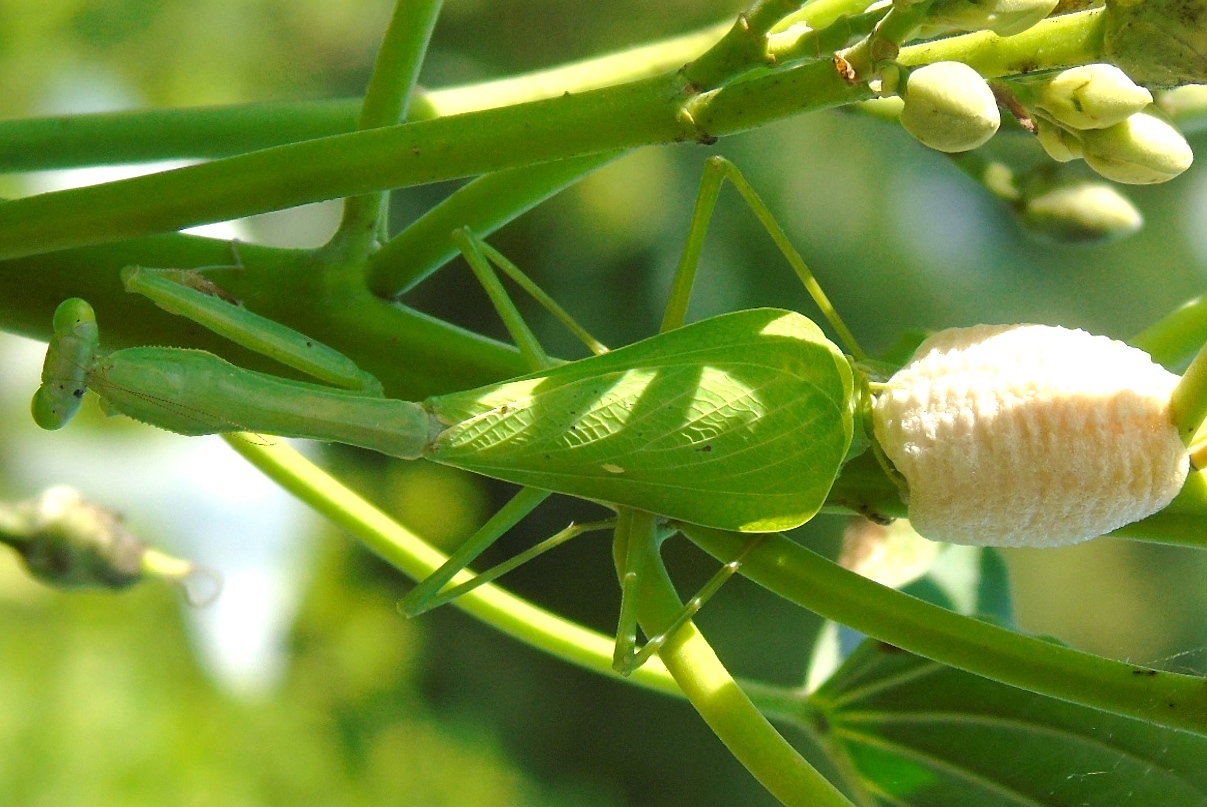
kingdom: Animalia
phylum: Arthropoda
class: Insecta
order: Mantodea
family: Mantidae
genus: Stagmomantis
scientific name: Stagmomantis
